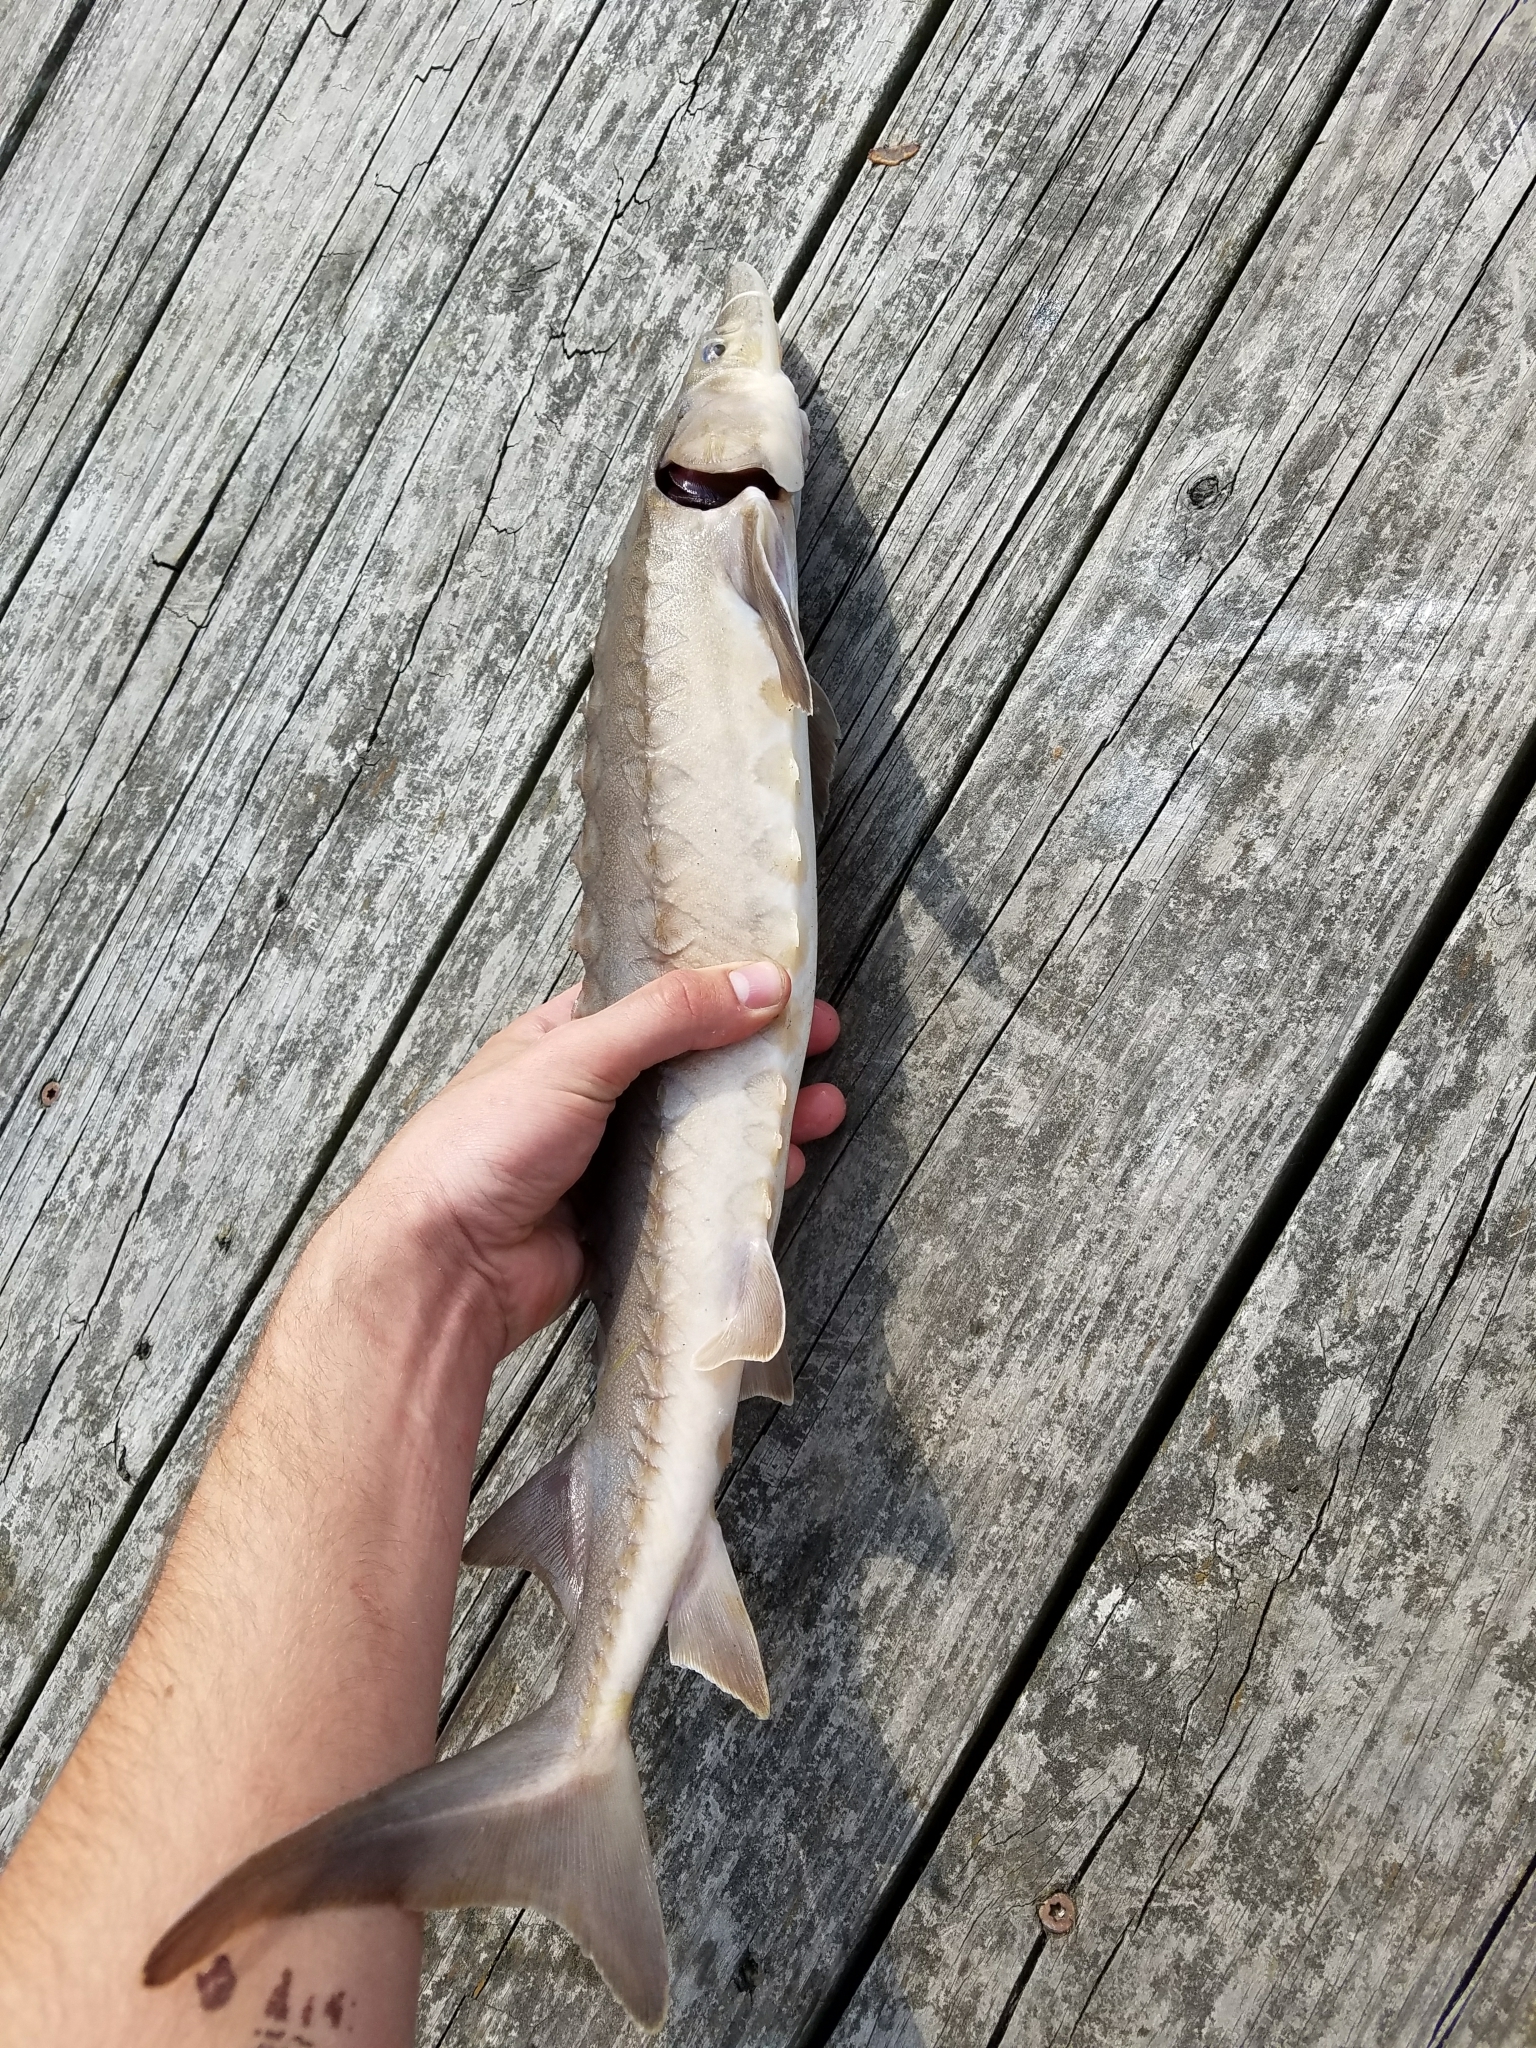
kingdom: Animalia
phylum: Chordata
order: Acipenseriformes
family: Acipenseridae
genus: Acipenser
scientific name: Acipenser fulvescens
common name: Lake sturgeon
